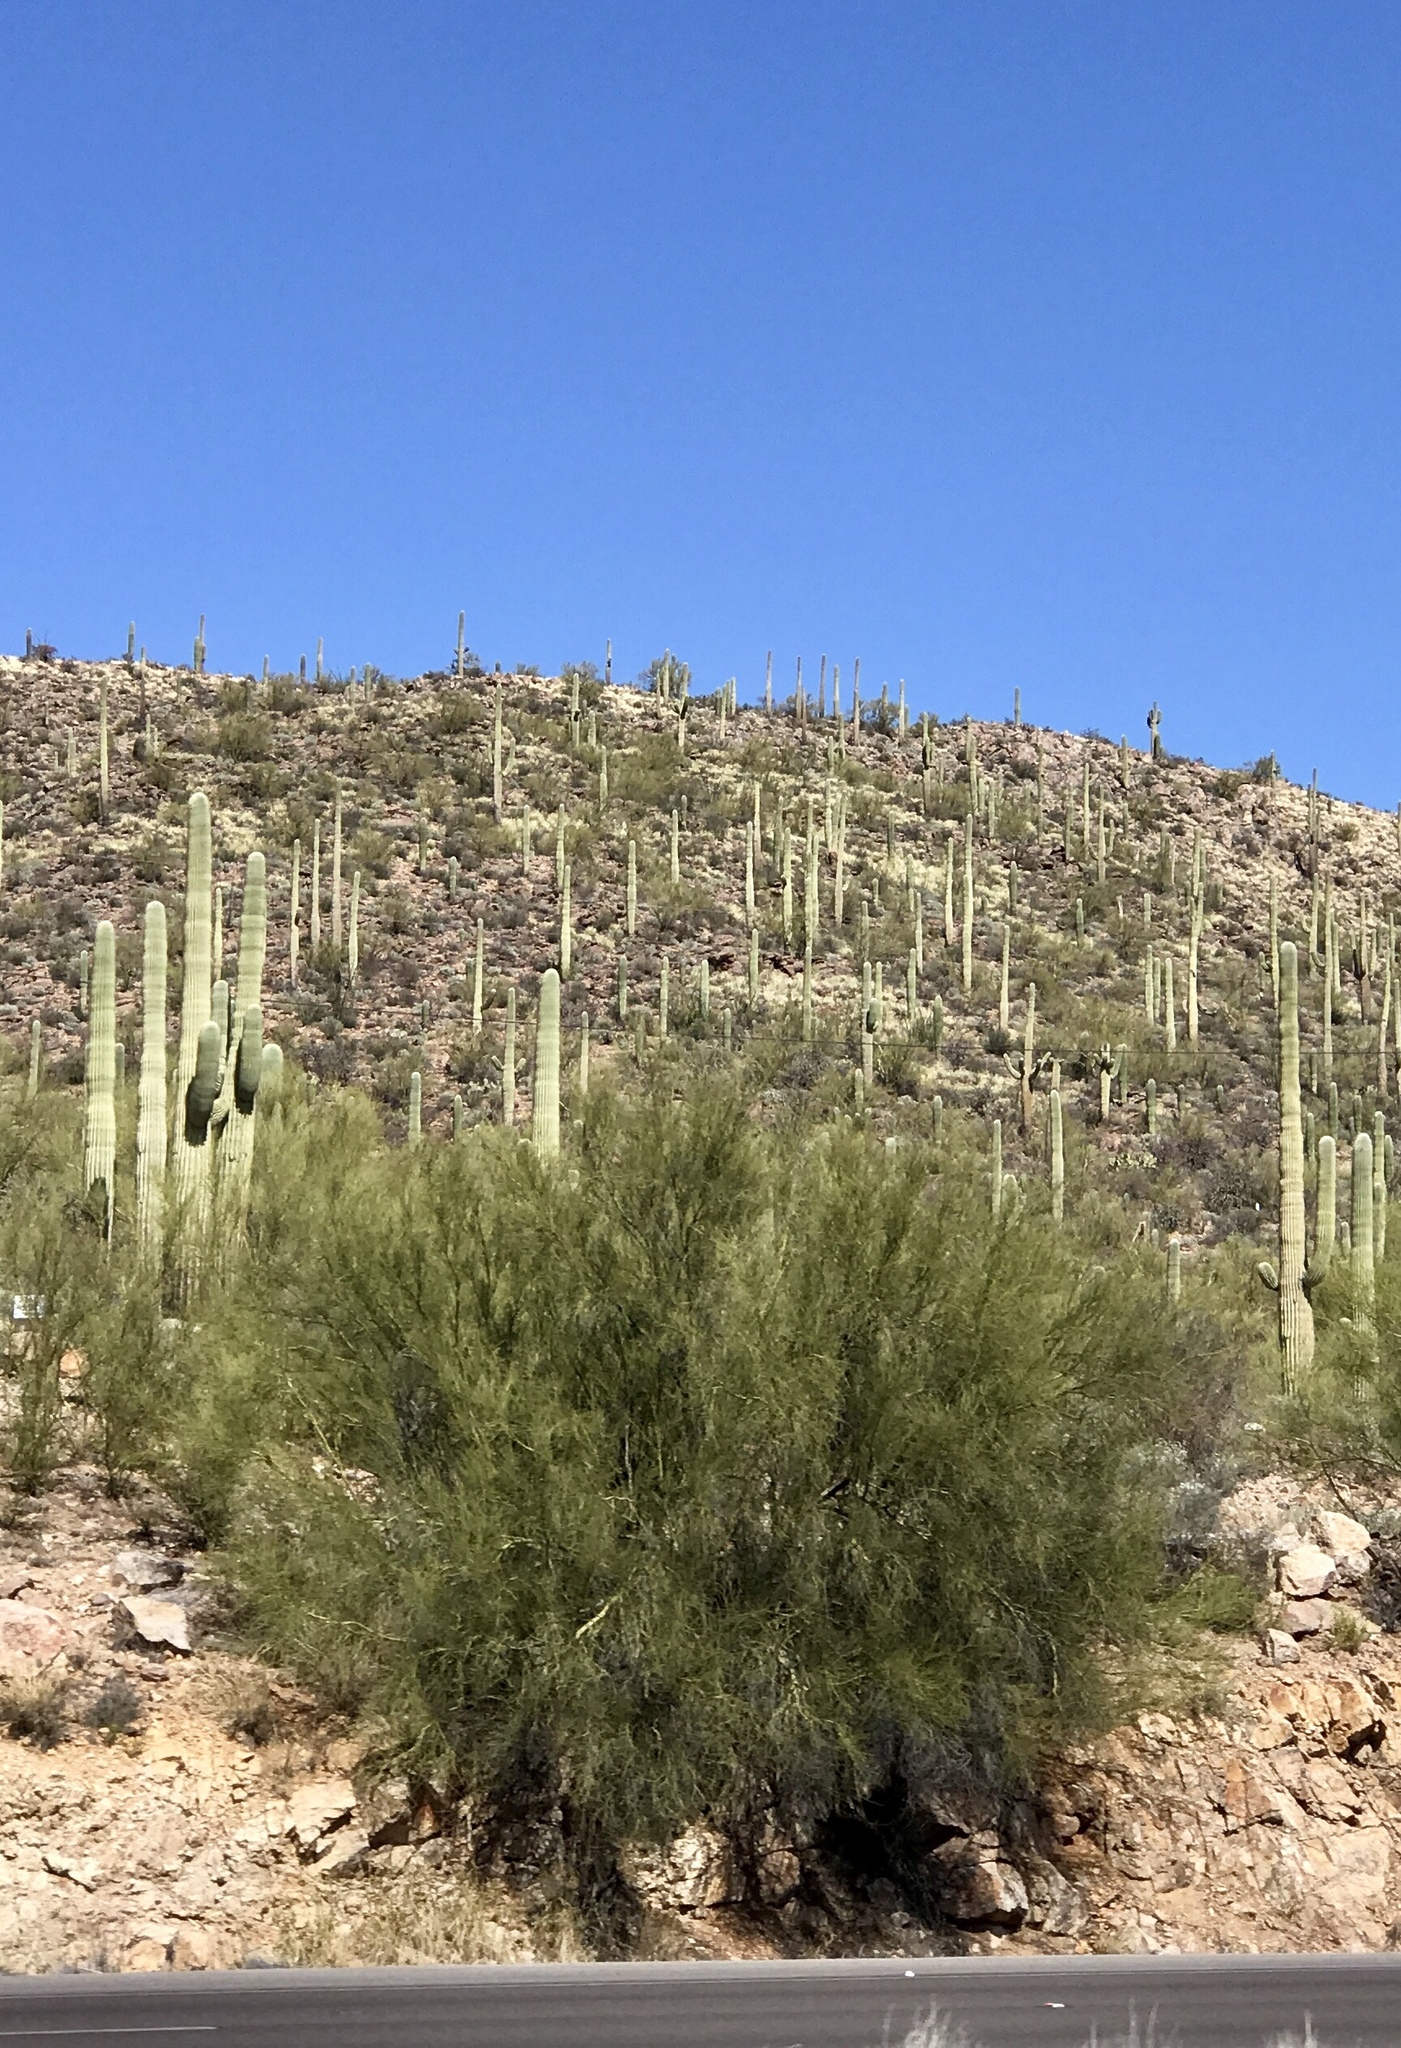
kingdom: Plantae
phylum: Tracheophyta
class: Magnoliopsida
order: Fabales
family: Fabaceae
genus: Parkinsonia
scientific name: Parkinsonia microphylla
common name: Yellow paloverde
